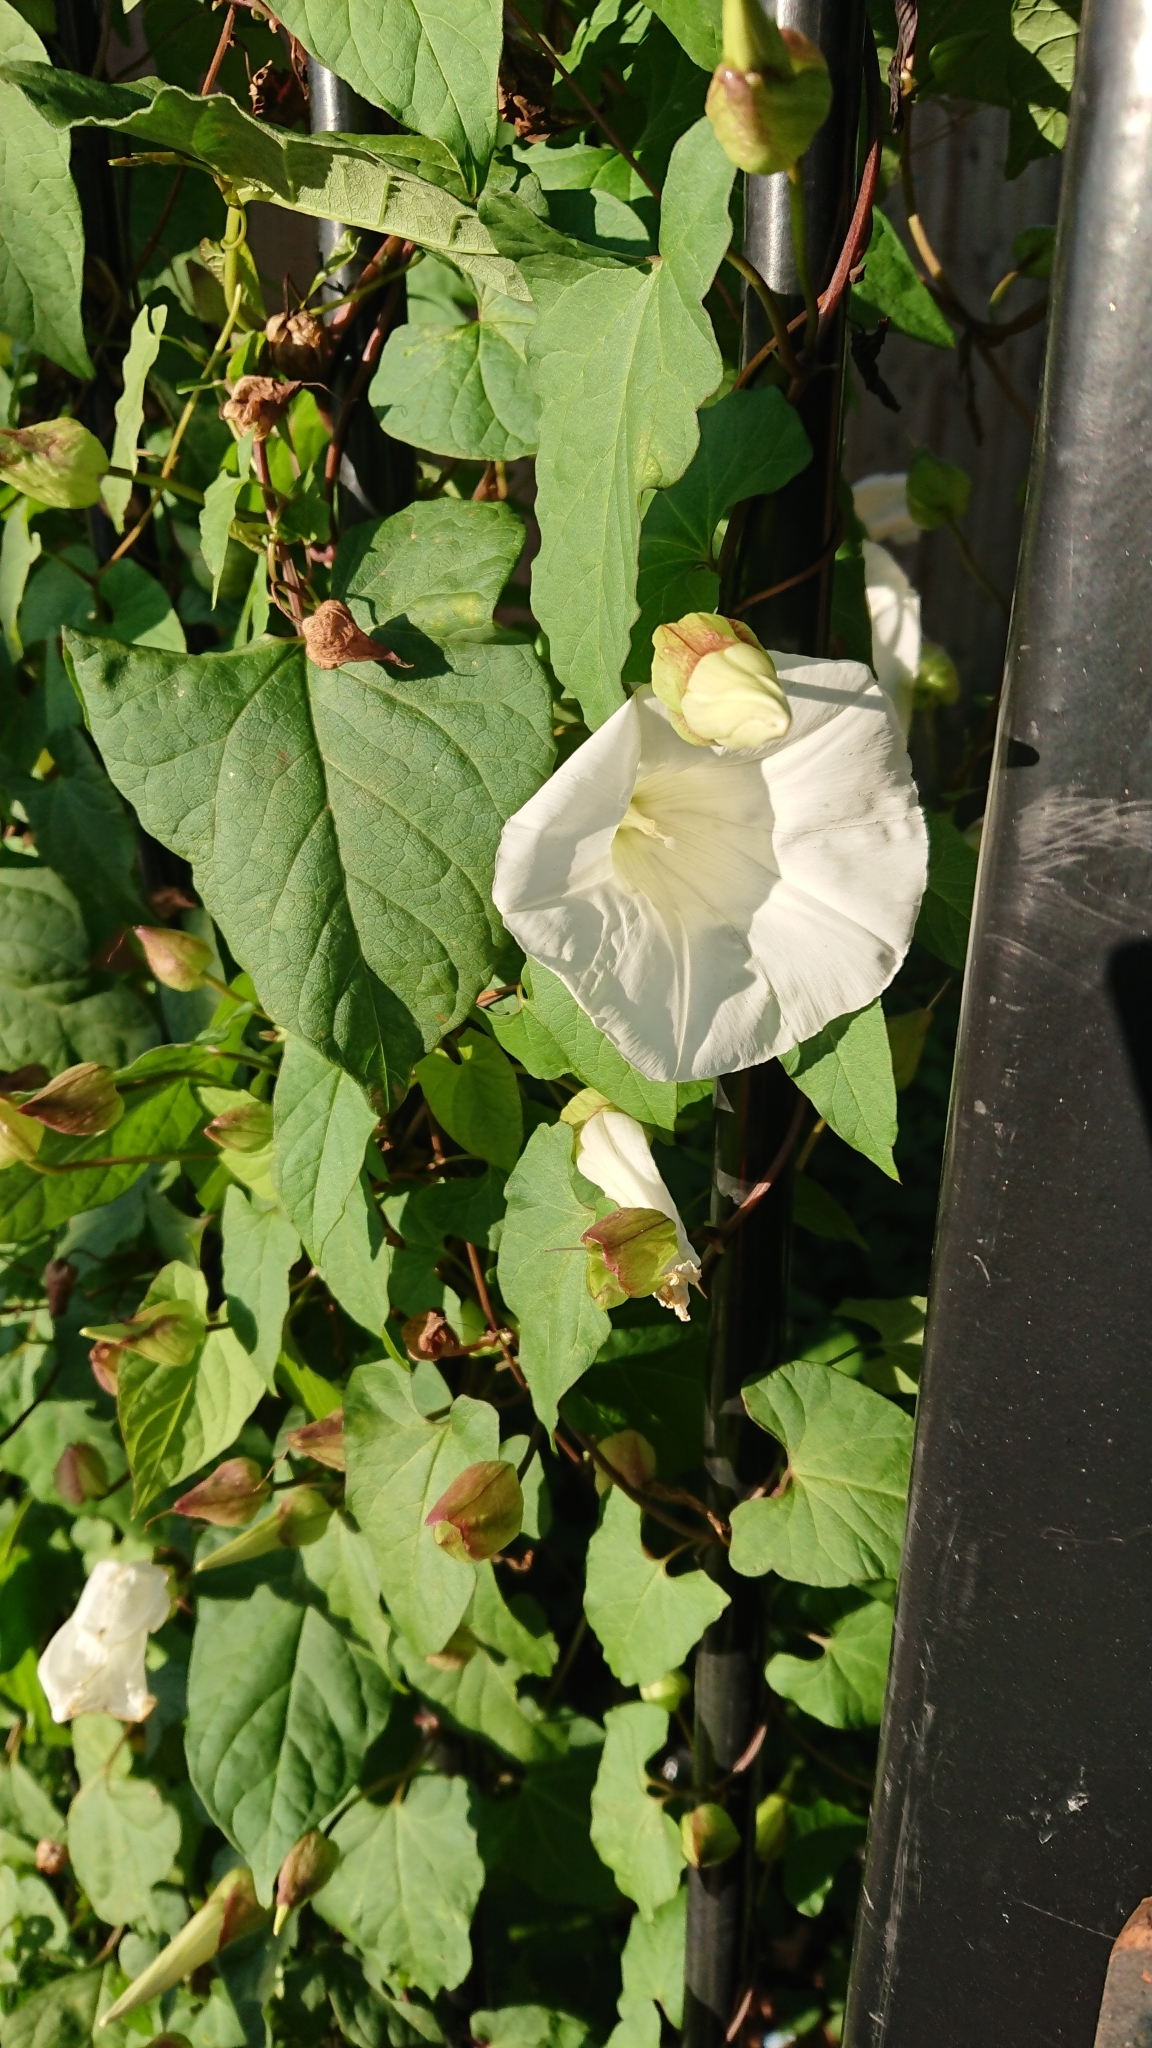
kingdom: Plantae
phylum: Tracheophyta
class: Magnoliopsida
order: Solanales
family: Convolvulaceae
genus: Calystegia
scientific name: Calystegia sepium
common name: Hedge bindweed
